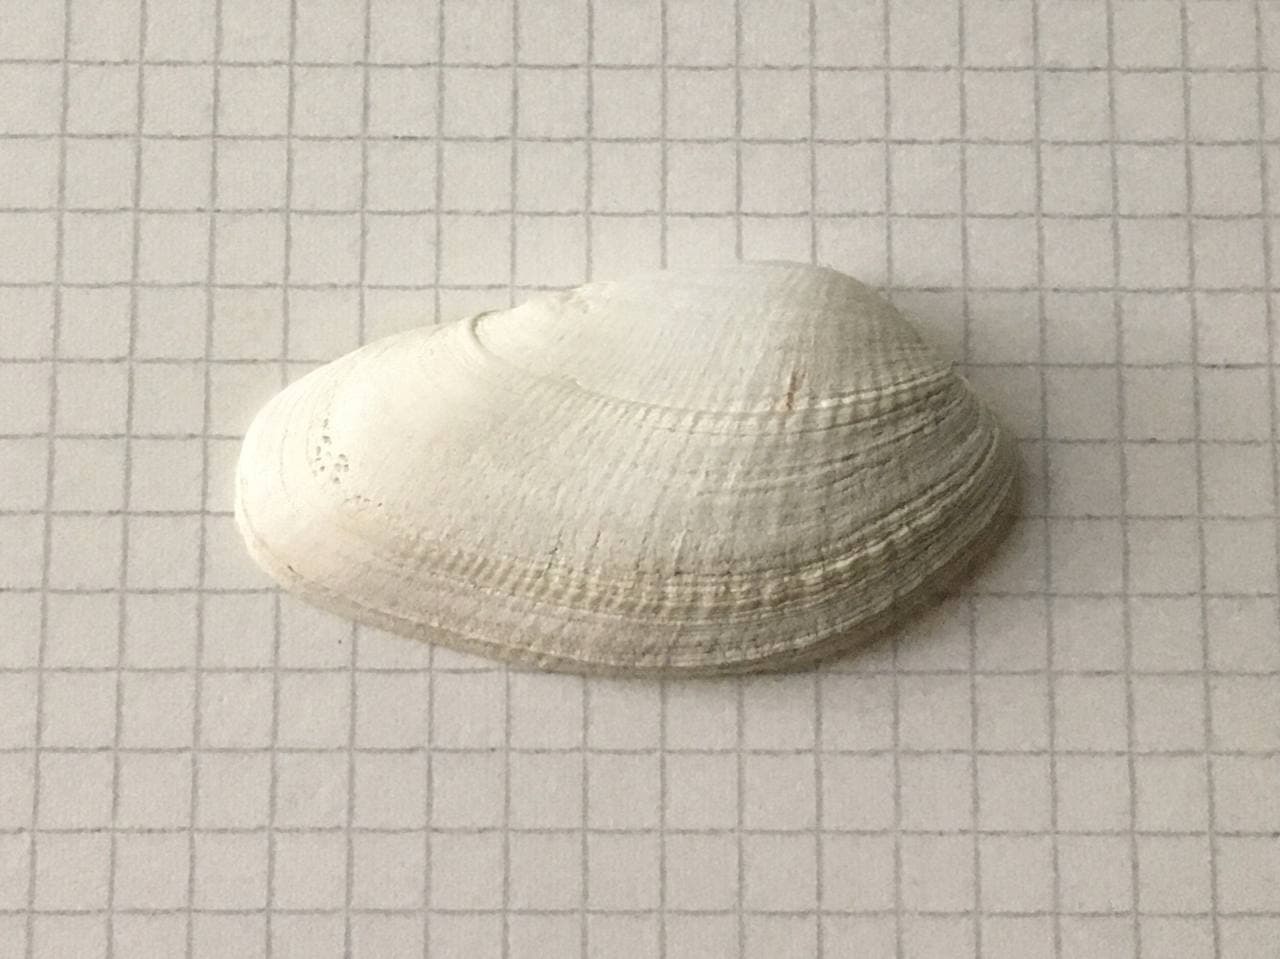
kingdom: Animalia
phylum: Mollusca
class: Bivalvia
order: Venerida
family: Veneridae
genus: Petricola
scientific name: Petricola dactylus
